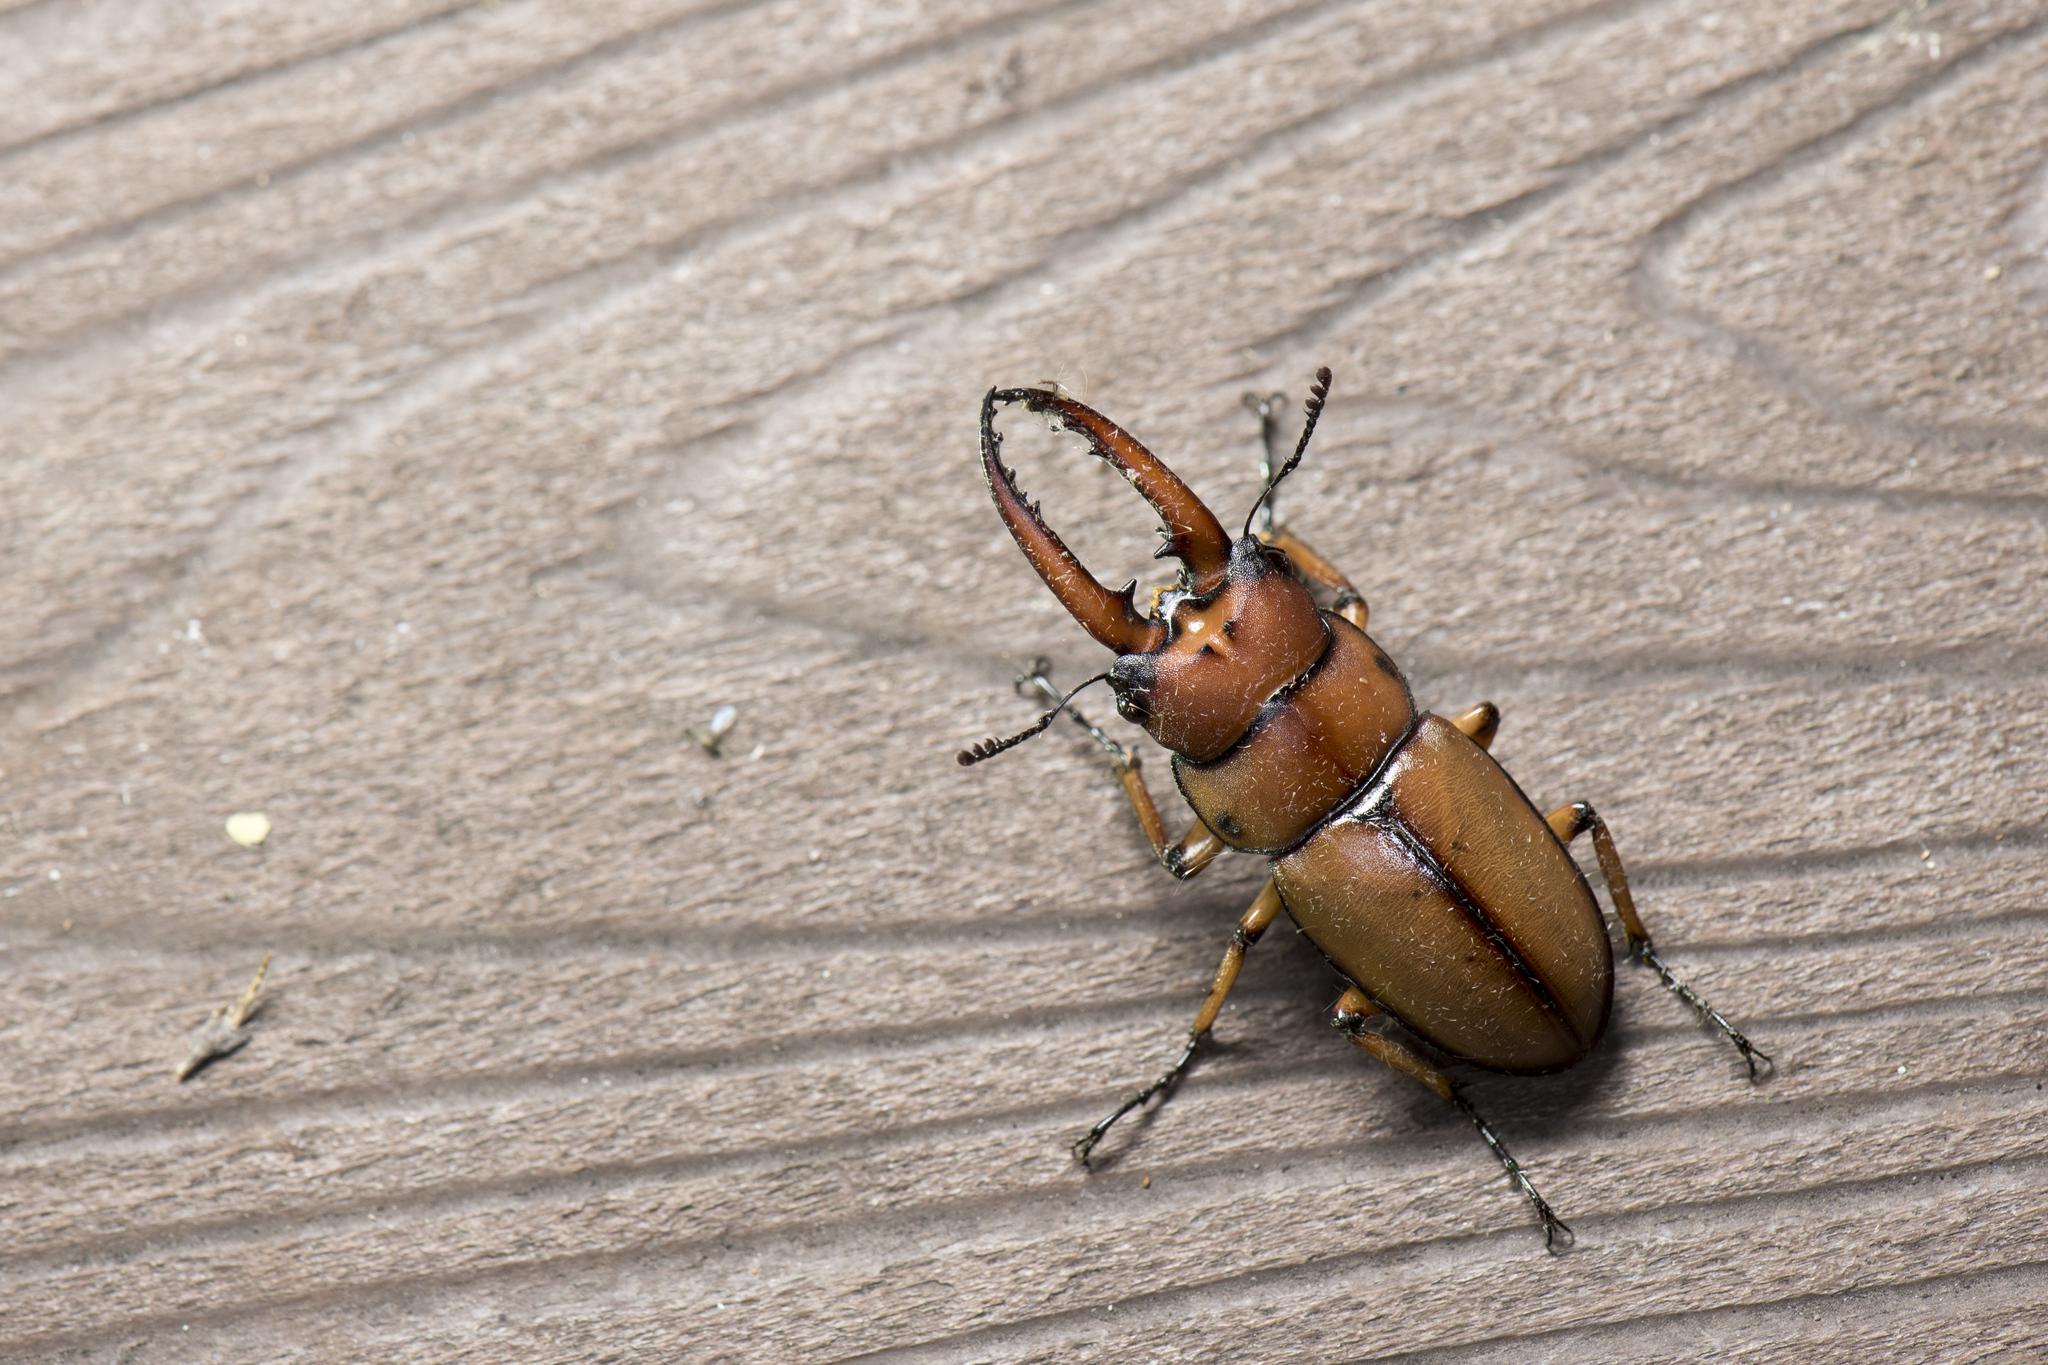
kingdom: Animalia
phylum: Arthropoda
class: Insecta
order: Coleoptera
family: Lucanidae
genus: Prosopocoilus
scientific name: Prosopocoilus astacoides
